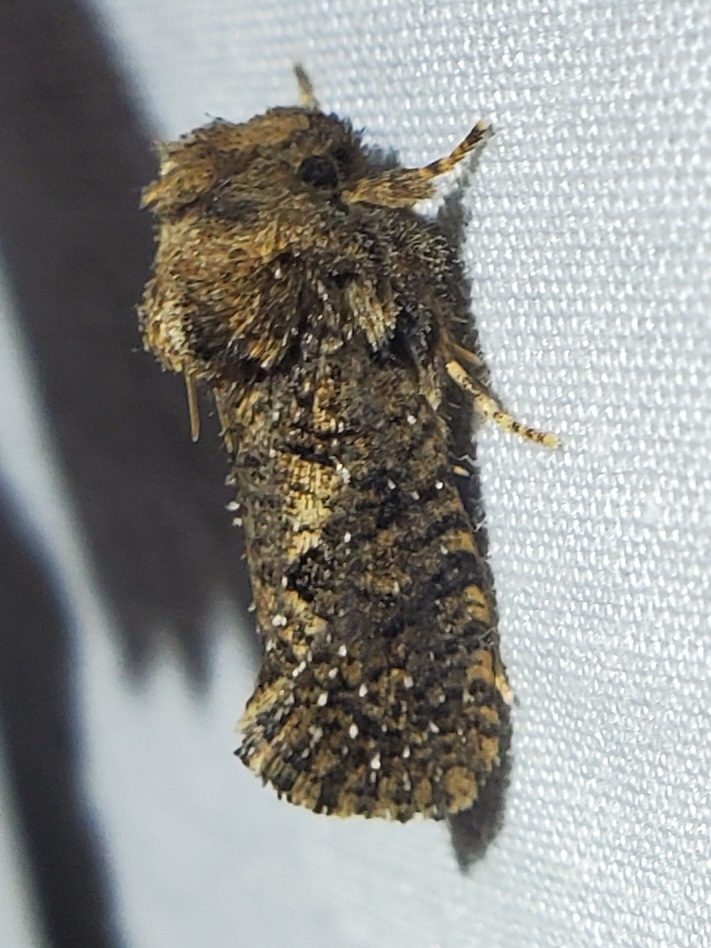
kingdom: Animalia
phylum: Arthropoda
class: Insecta
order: Lepidoptera
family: Tineidae
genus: Acrolophus
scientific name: Acrolophus arcanella
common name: Arcane grass tubeworm moth
